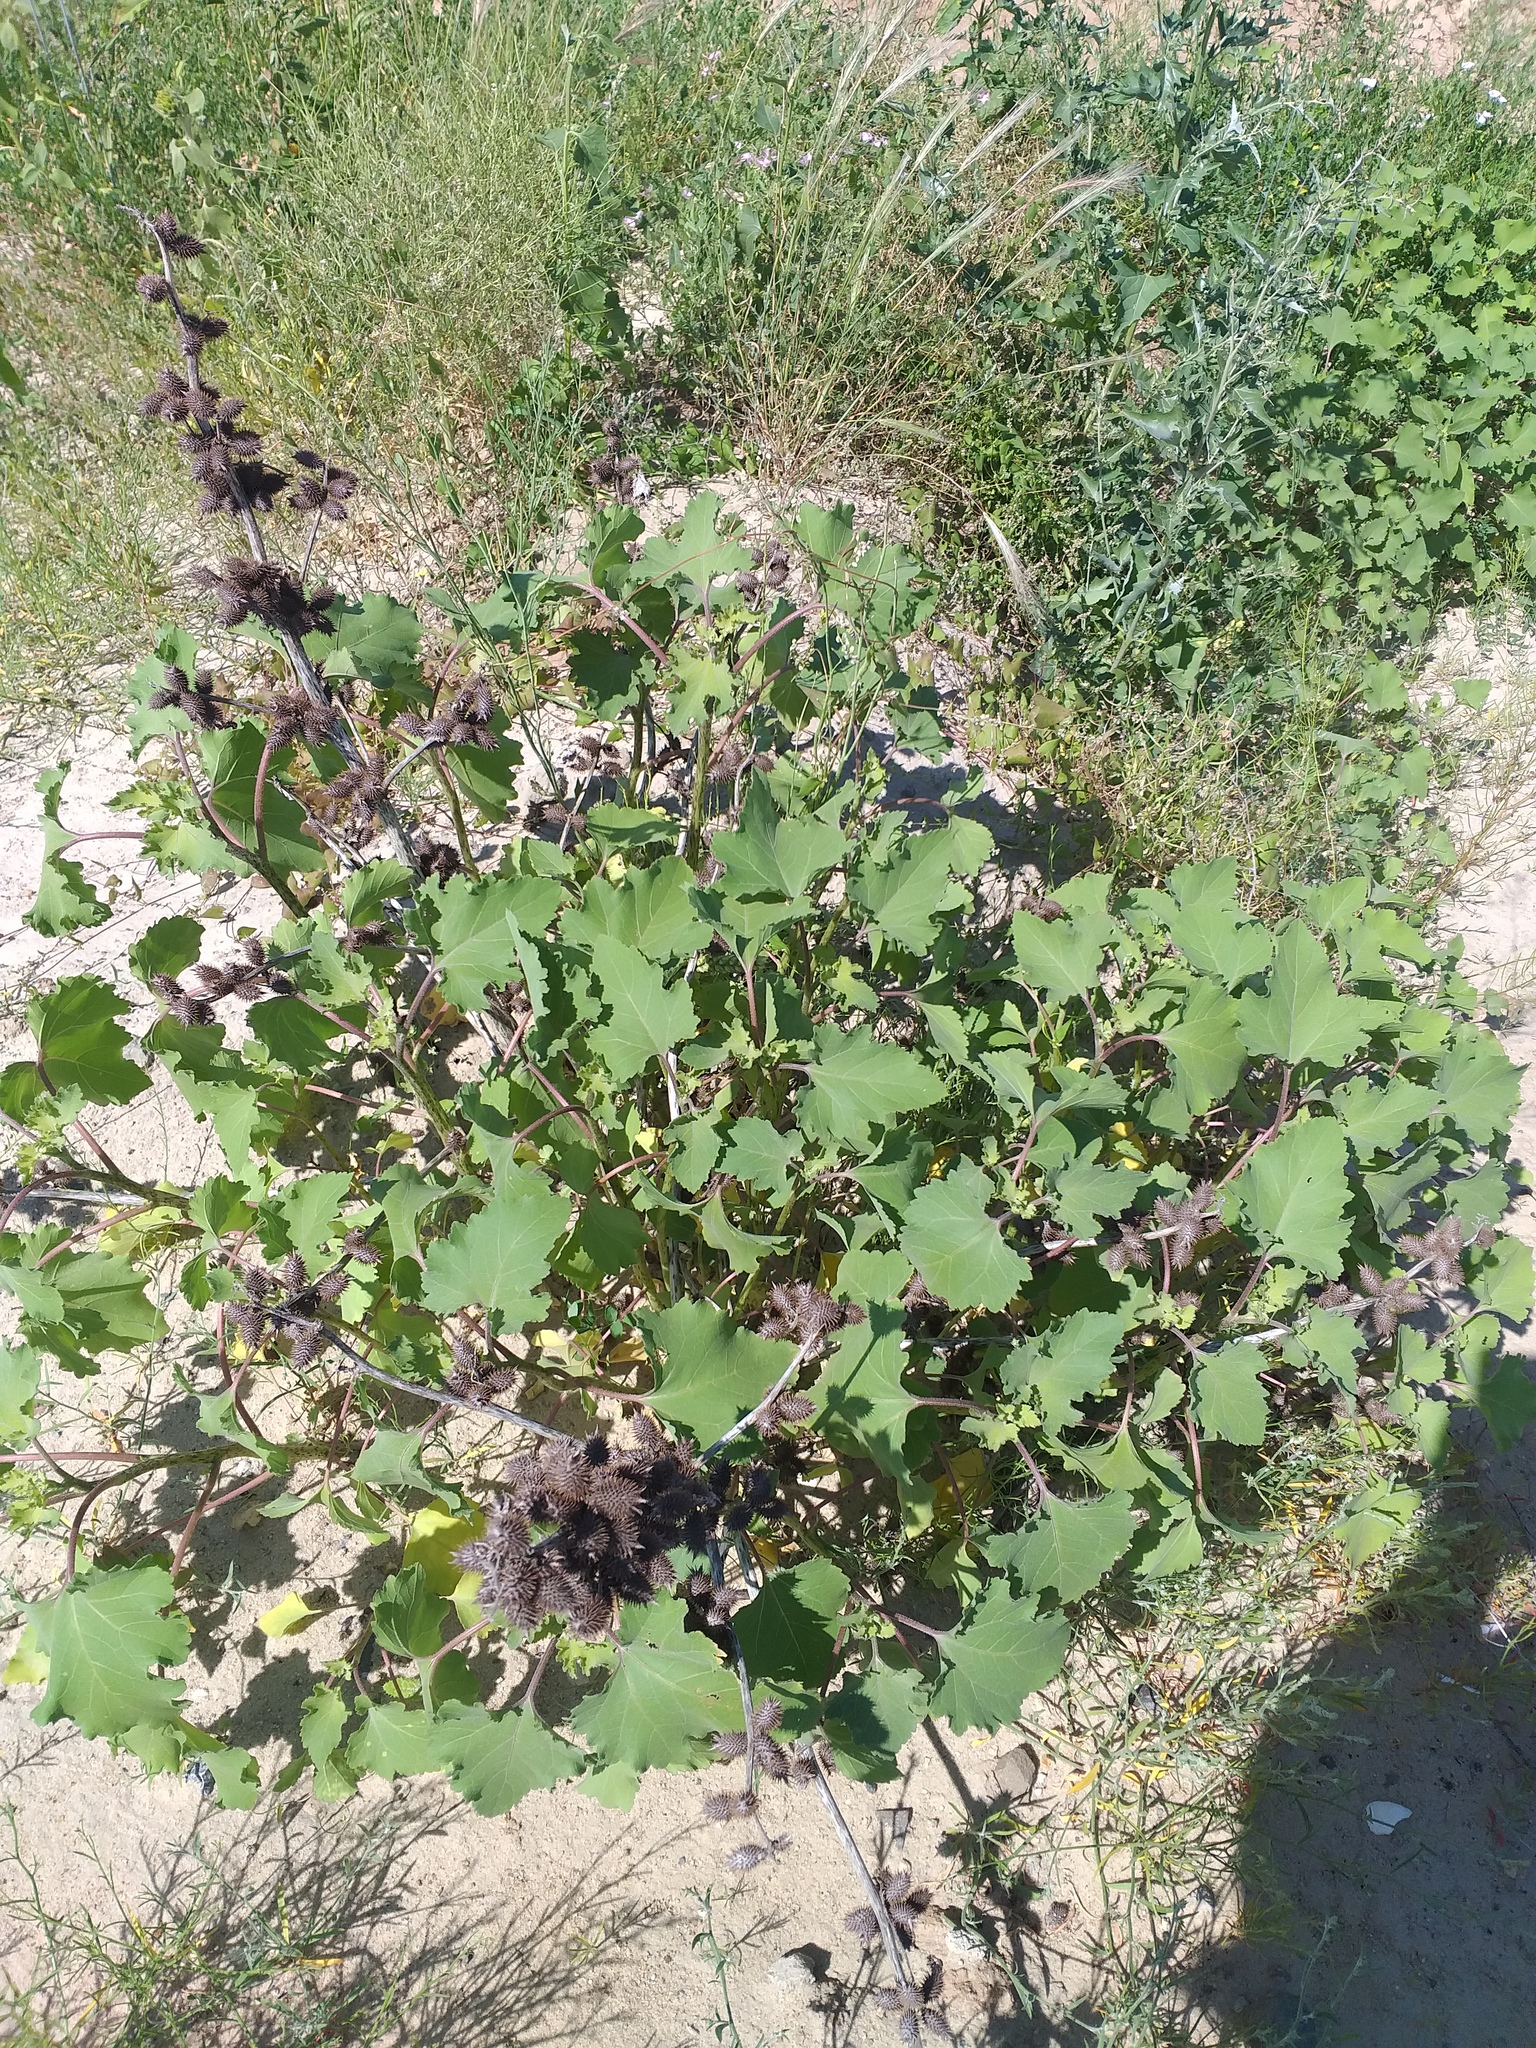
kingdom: Plantae
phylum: Tracheophyta
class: Magnoliopsida
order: Asterales
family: Asteraceae
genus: Xanthium
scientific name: Xanthium orientale
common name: Californian burr
